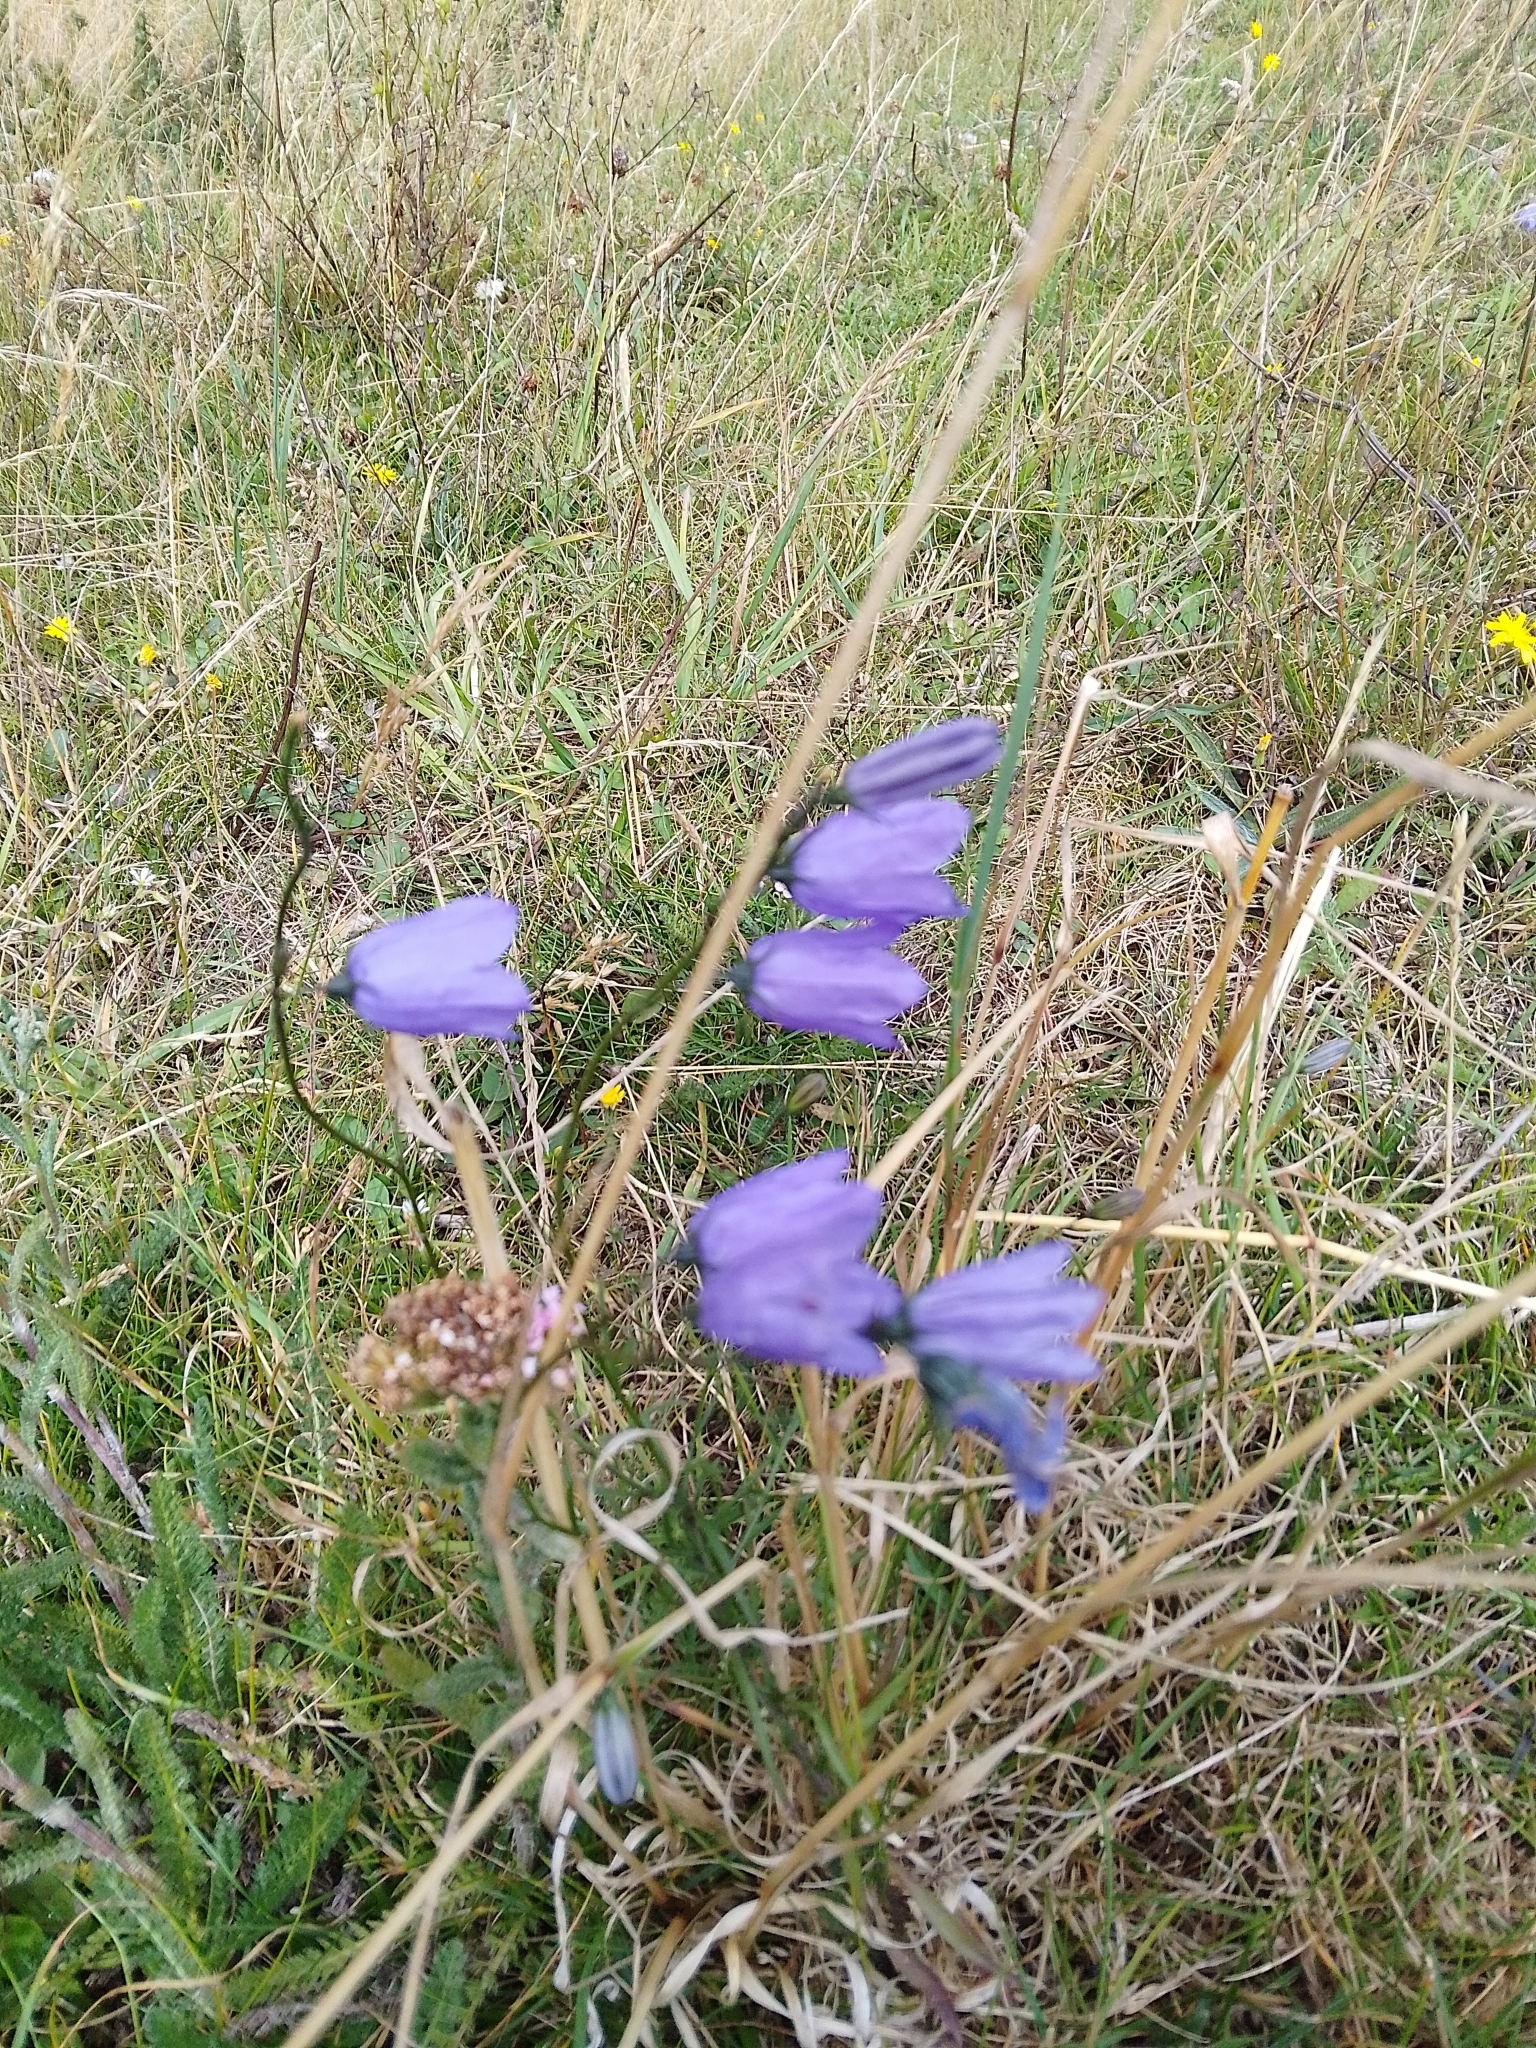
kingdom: Plantae
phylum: Tracheophyta
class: Magnoliopsida
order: Asterales
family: Campanulaceae
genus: Campanula
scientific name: Campanula rotundifolia
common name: Harebell
